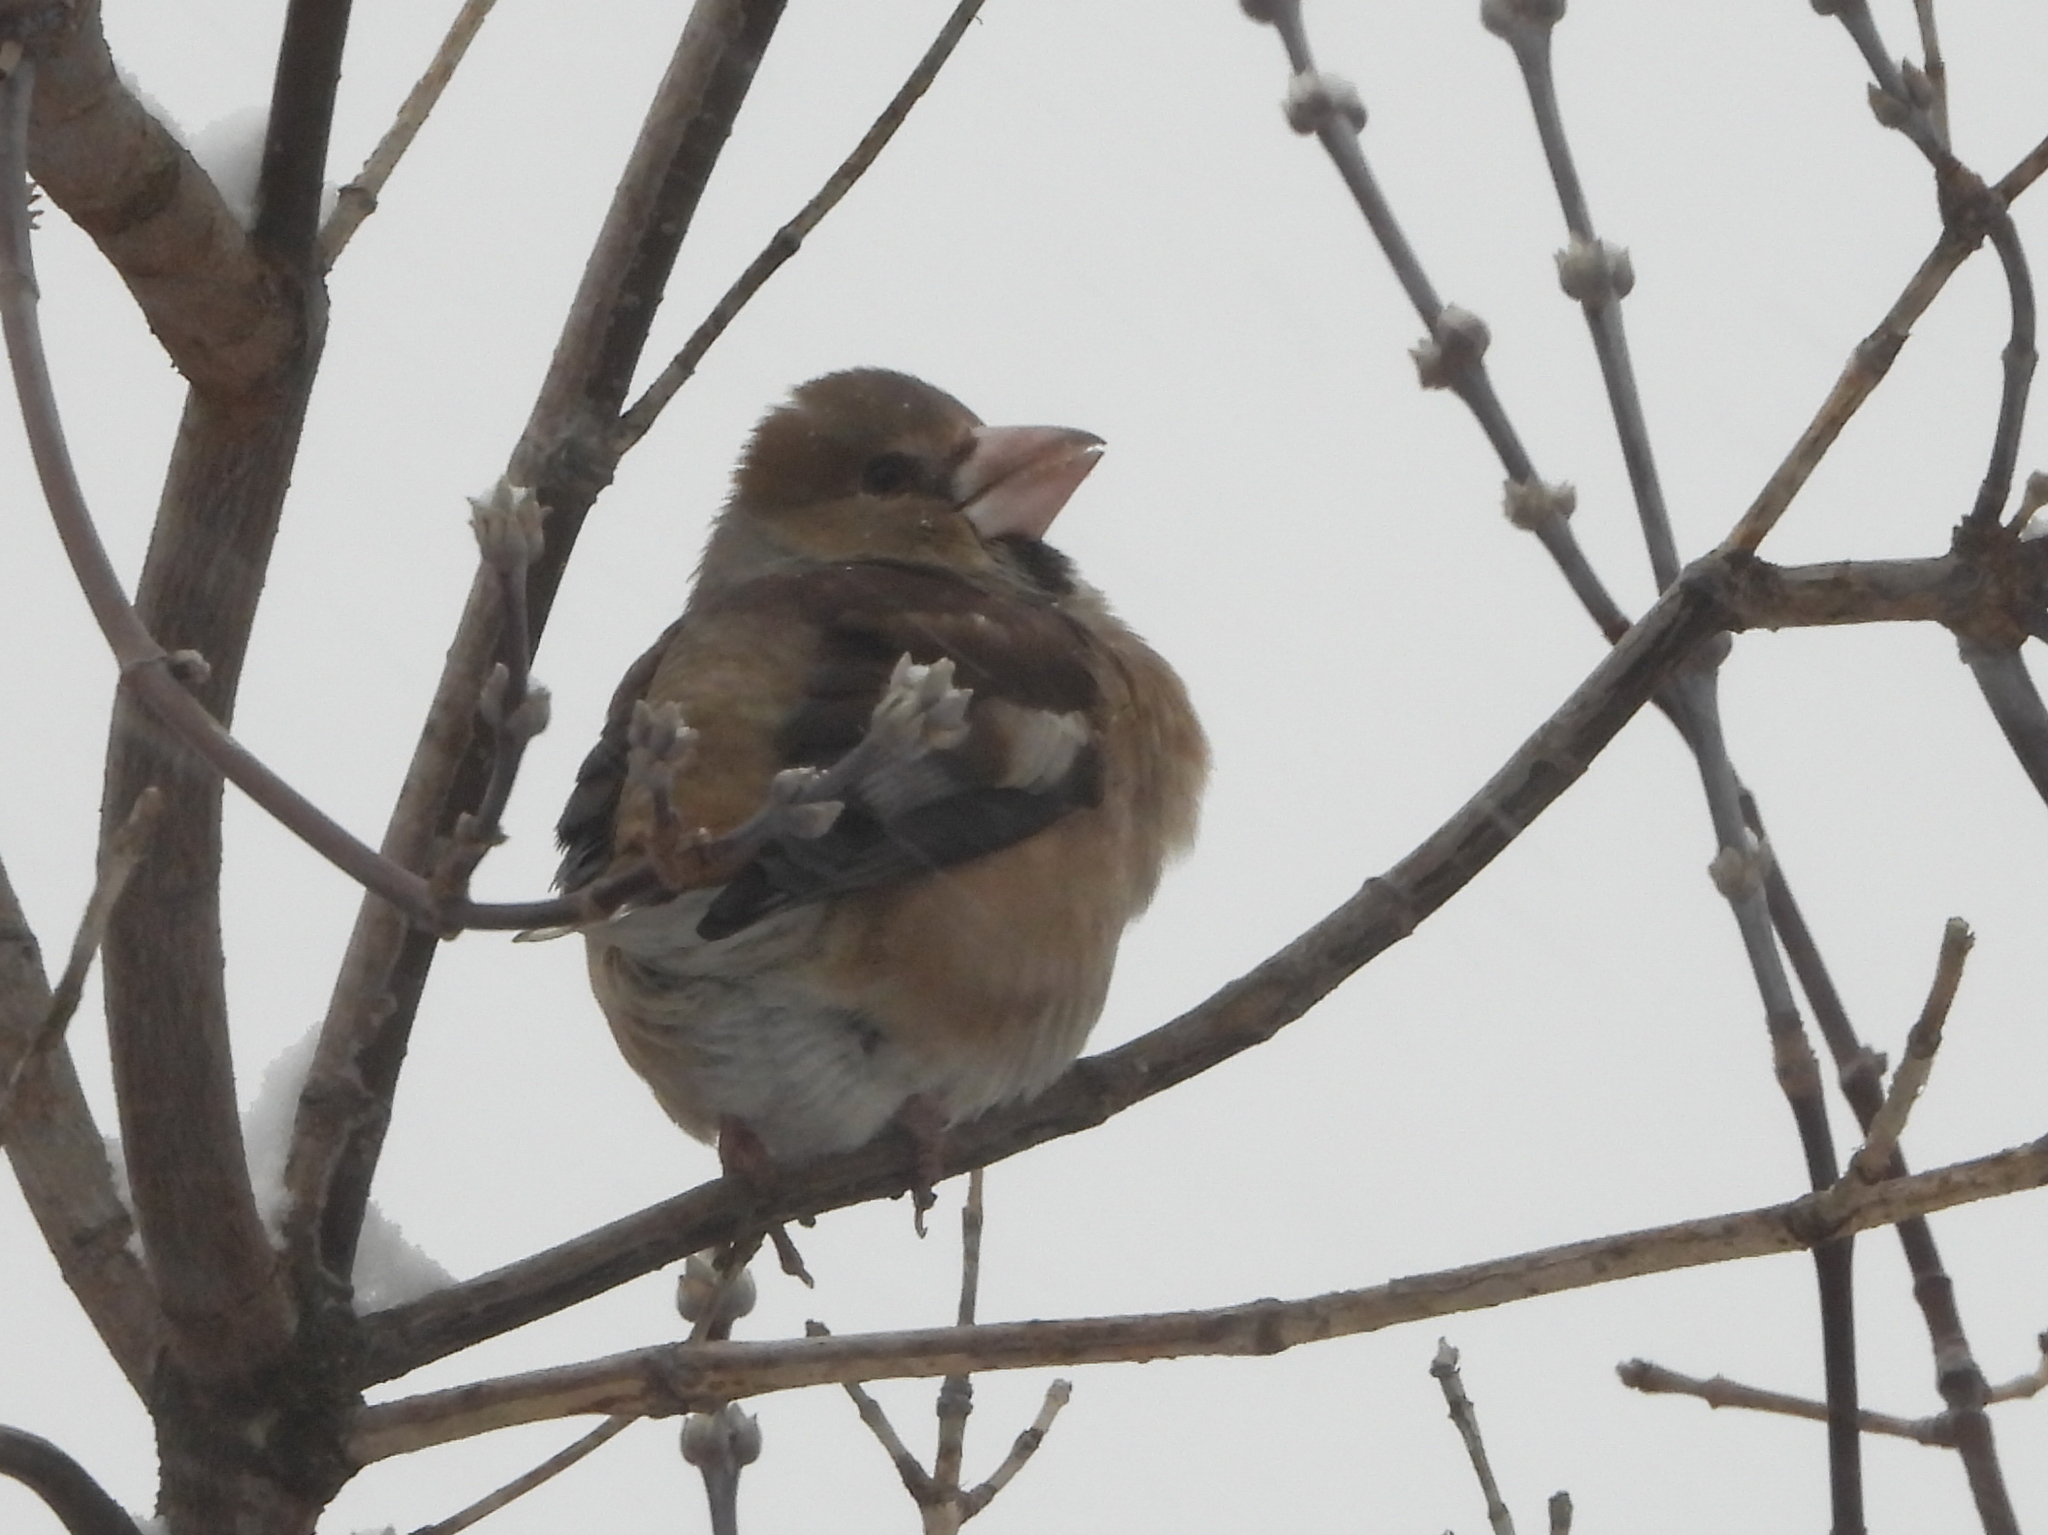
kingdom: Animalia
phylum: Chordata
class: Aves
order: Passeriformes
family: Fringillidae
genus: Coccothraustes
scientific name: Coccothraustes coccothraustes
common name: Hawfinch
